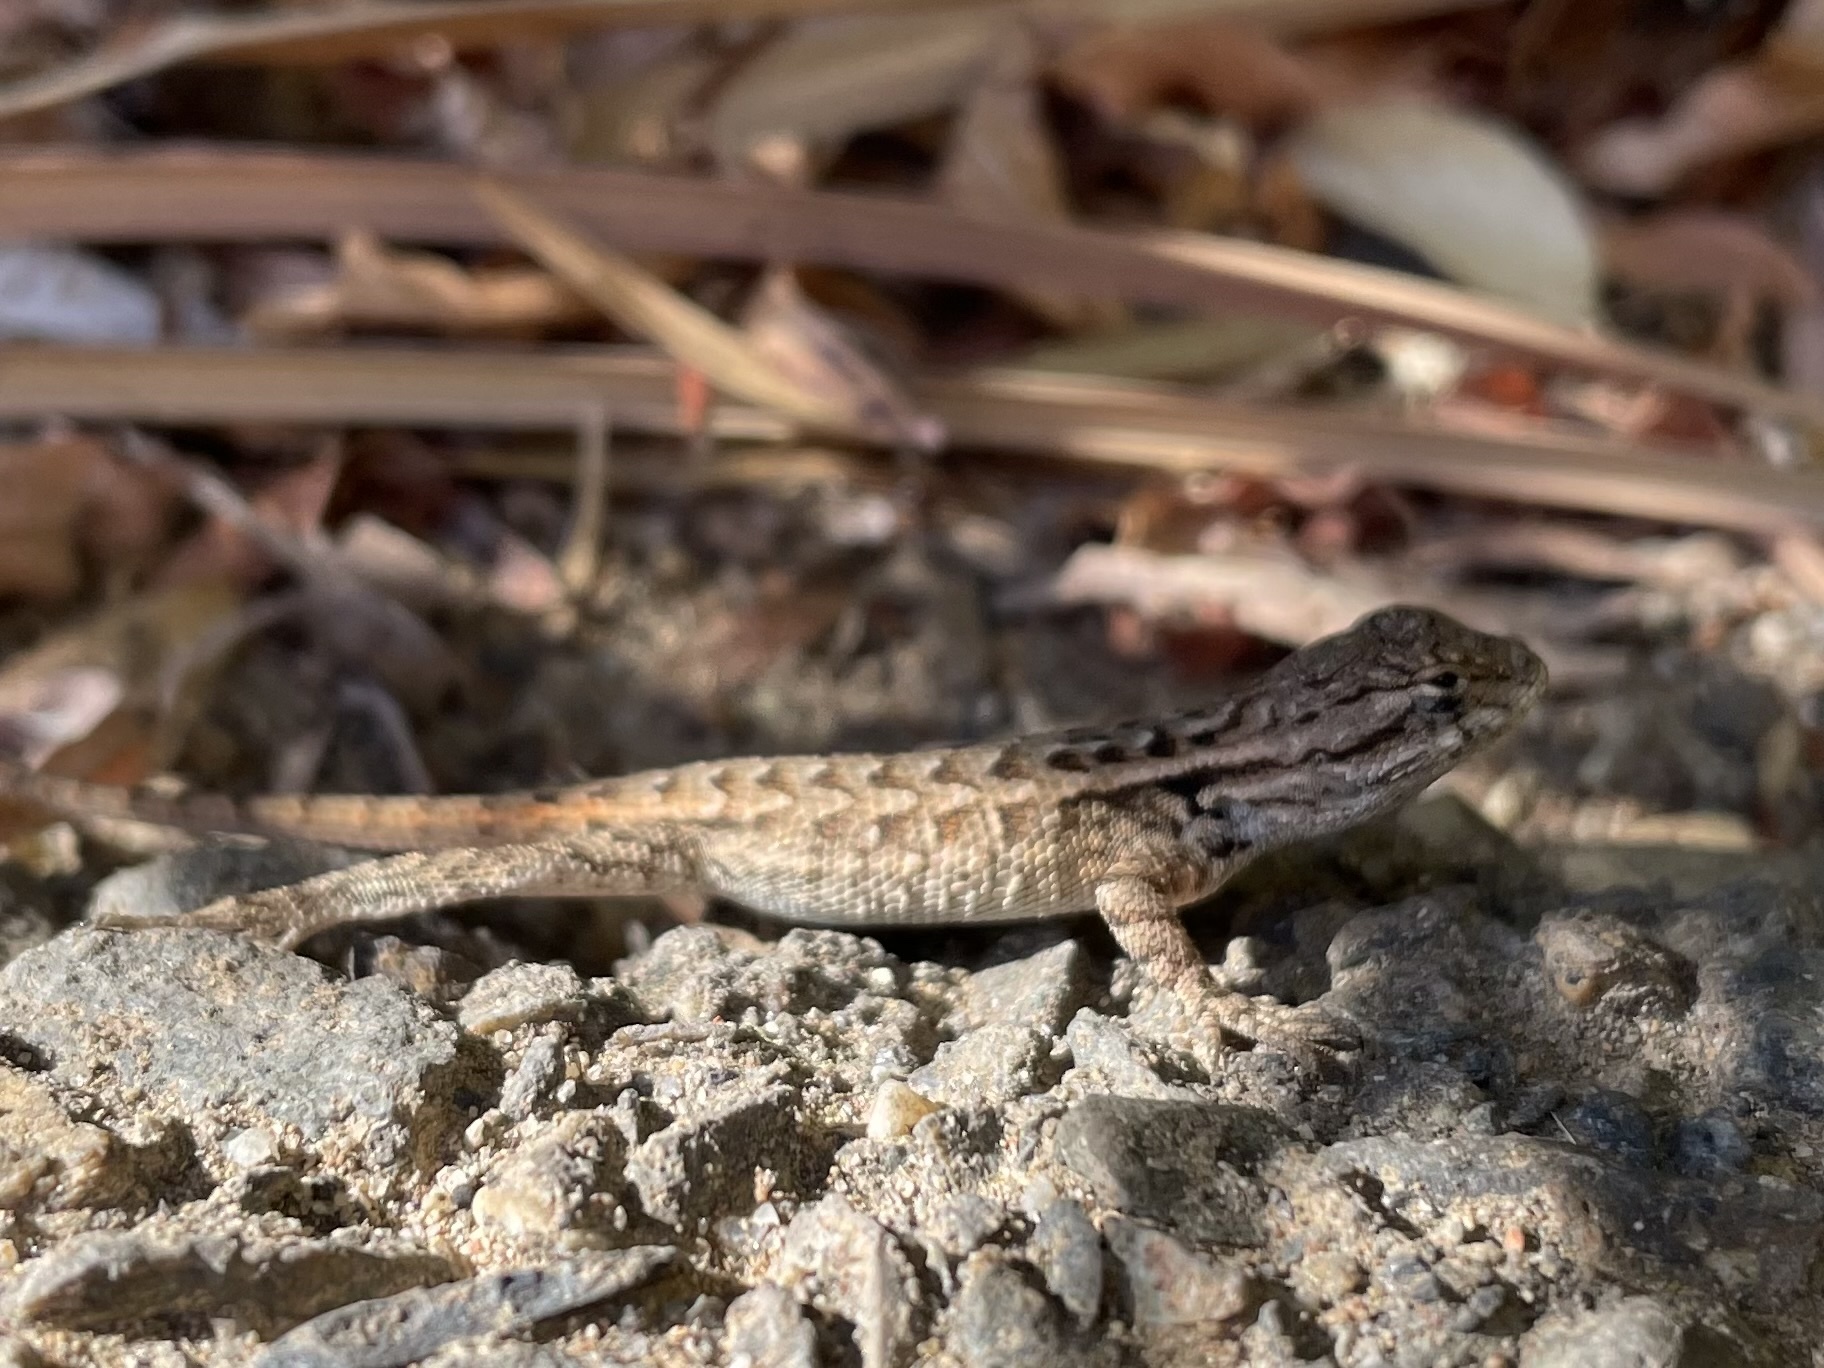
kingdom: Animalia
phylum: Chordata
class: Squamata
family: Phrynosomatidae
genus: Sceloporus
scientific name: Sceloporus occidentalis
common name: Western fence lizard
